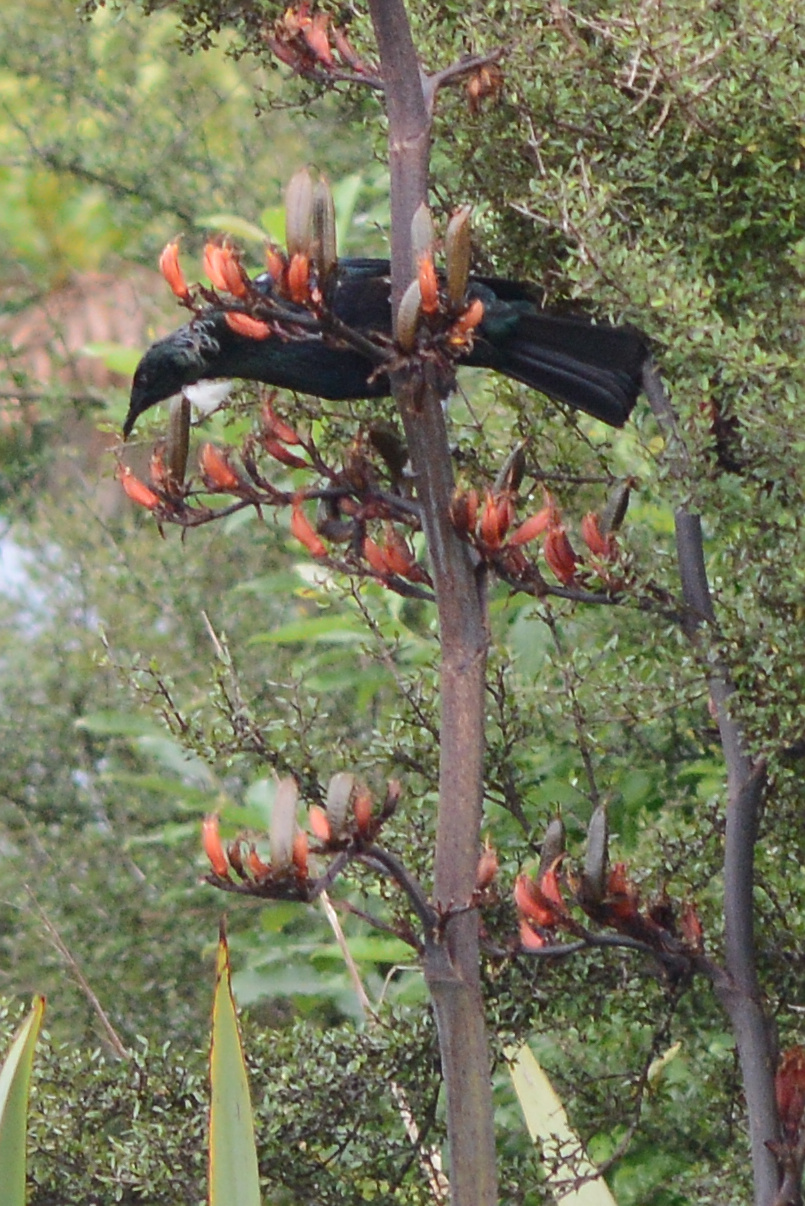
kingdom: Animalia
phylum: Chordata
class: Aves
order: Passeriformes
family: Meliphagidae
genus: Prosthemadera
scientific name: Prosthemadera novaeseelandiae
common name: Tui
